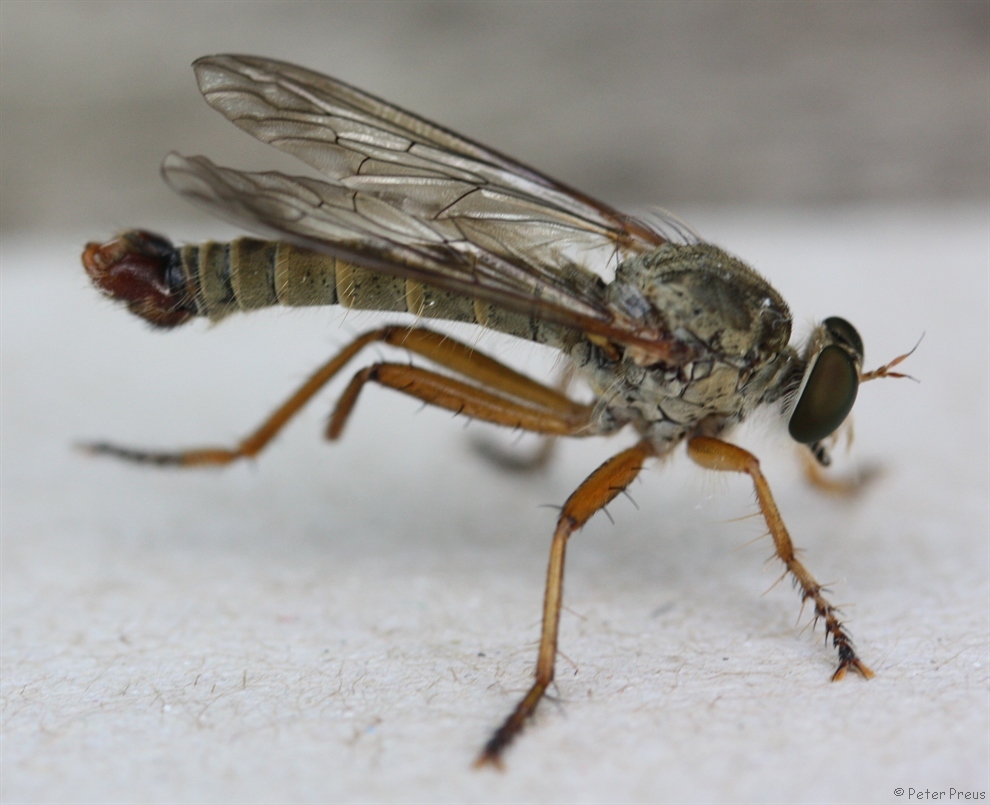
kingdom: Animalia
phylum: Arthropoda
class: Insecta
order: Diptera
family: Asilidae
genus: Aneomochtherus
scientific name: Aneomochtherus flavicornis
